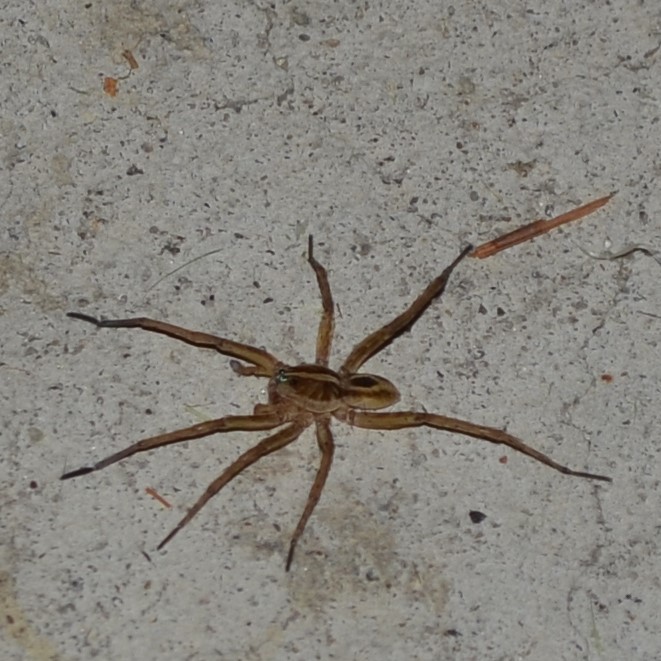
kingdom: Animalia
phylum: Arthropoda
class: Arachnida
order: Araneae
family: Lycosidae
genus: Tigrosa
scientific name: Tigrosa annexa
